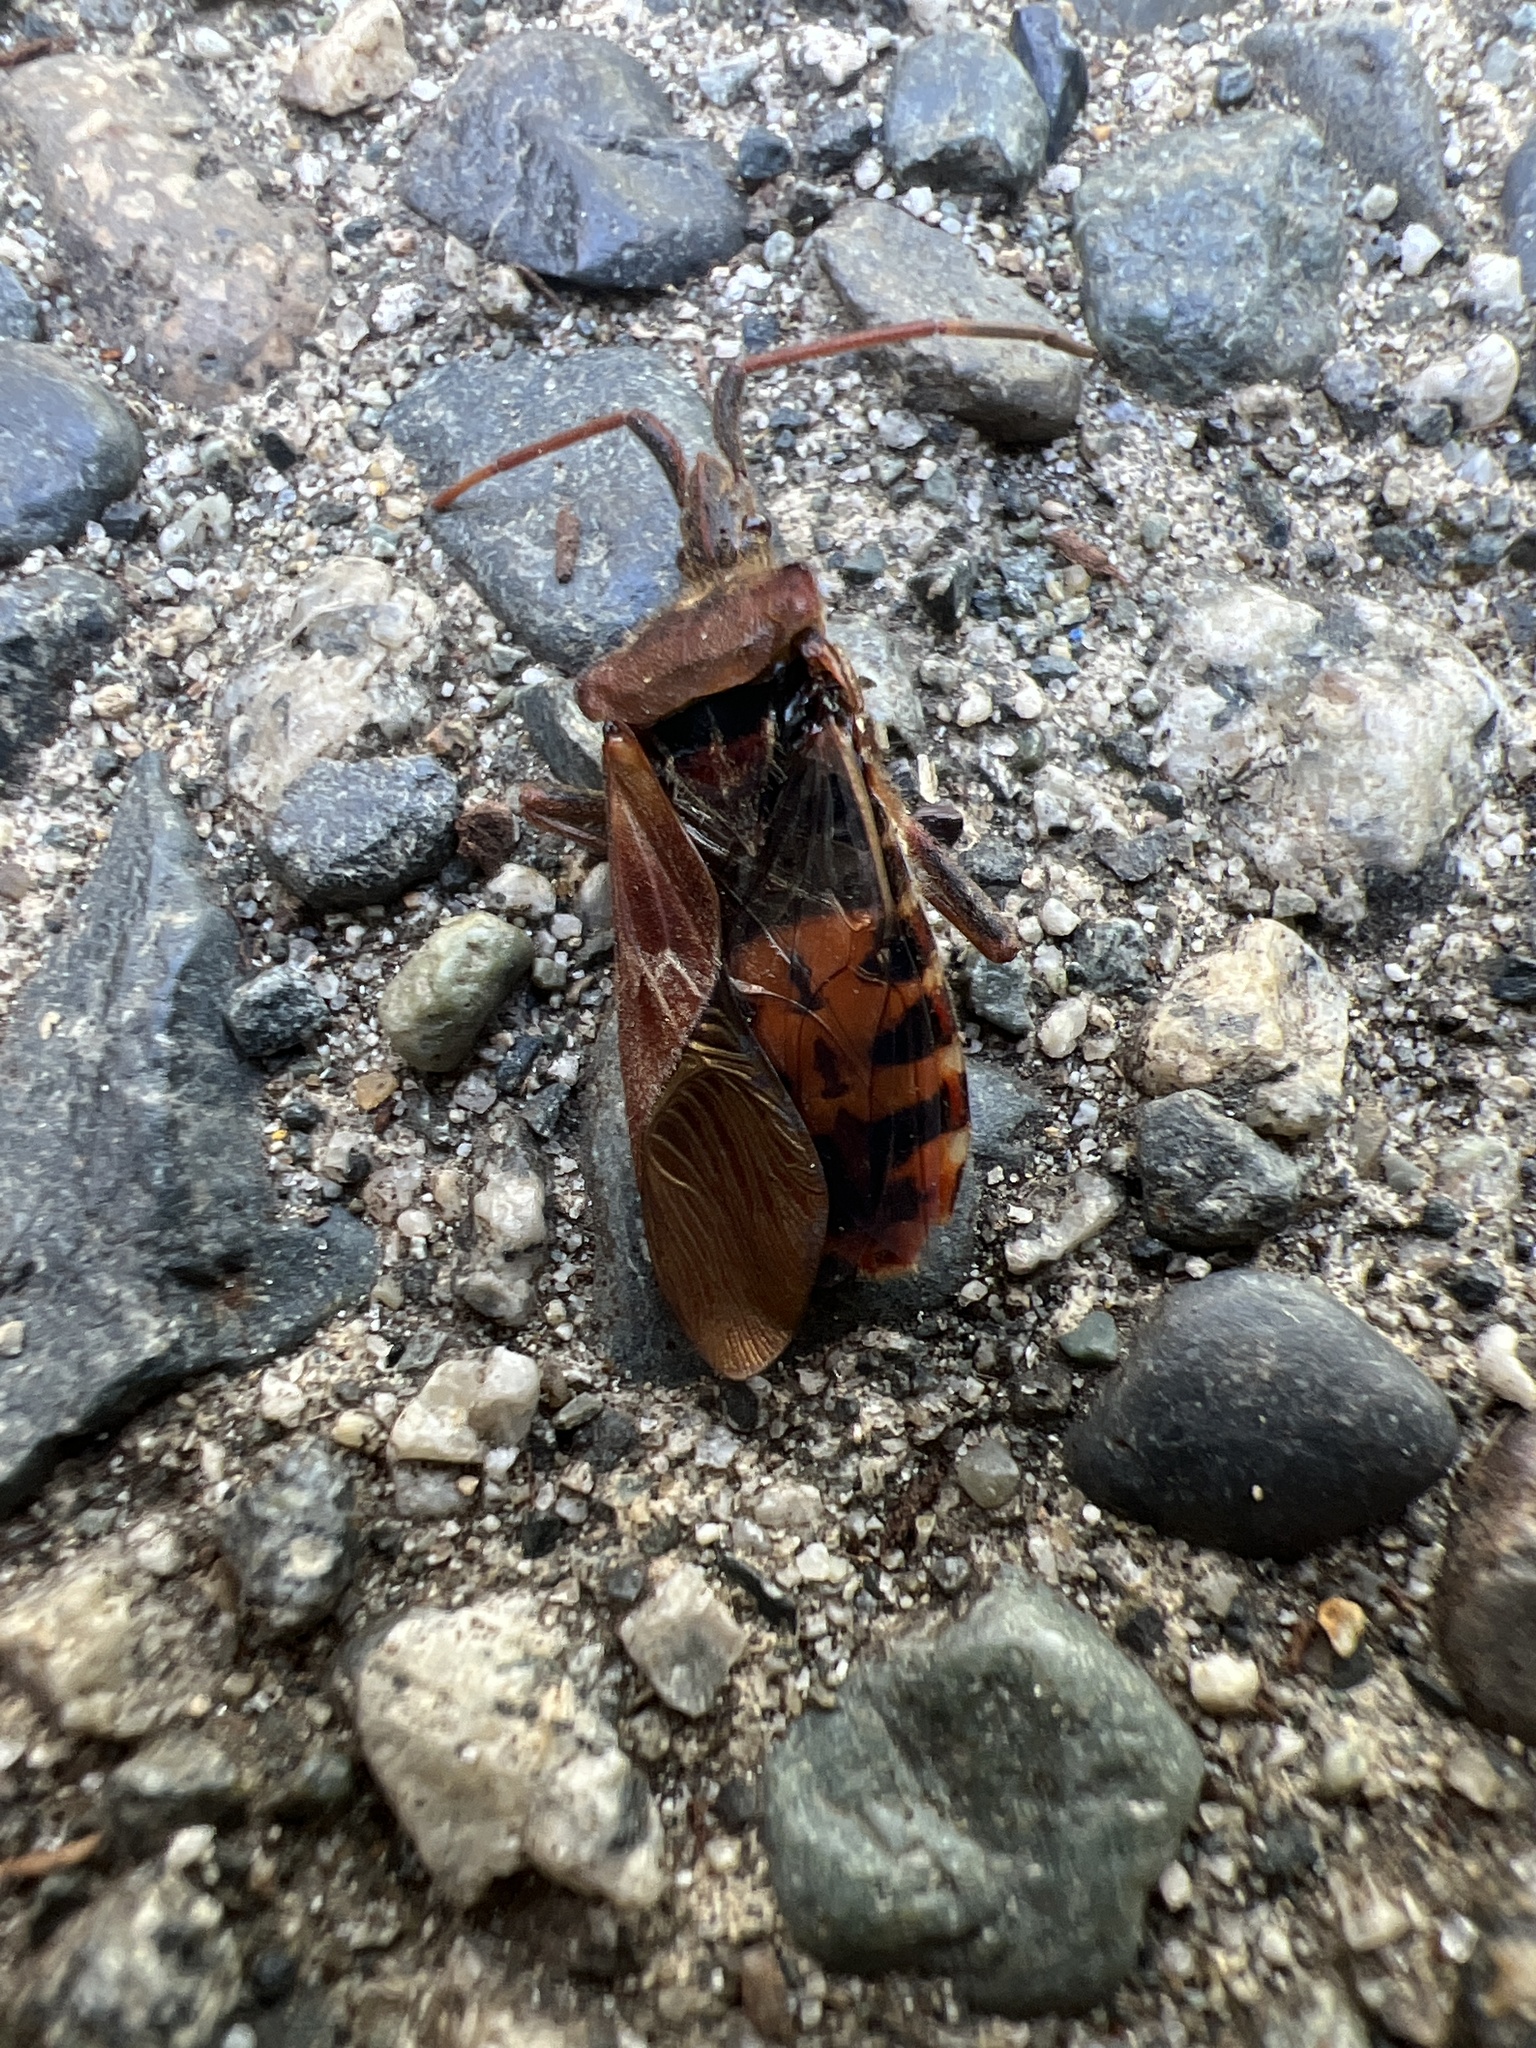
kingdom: Animalia
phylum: Arthropoda
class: Insecta
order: Hemiptera
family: Coreidae
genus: Leptoglossus
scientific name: Leptoglossus occidentalis
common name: Western conifer-seed bug
